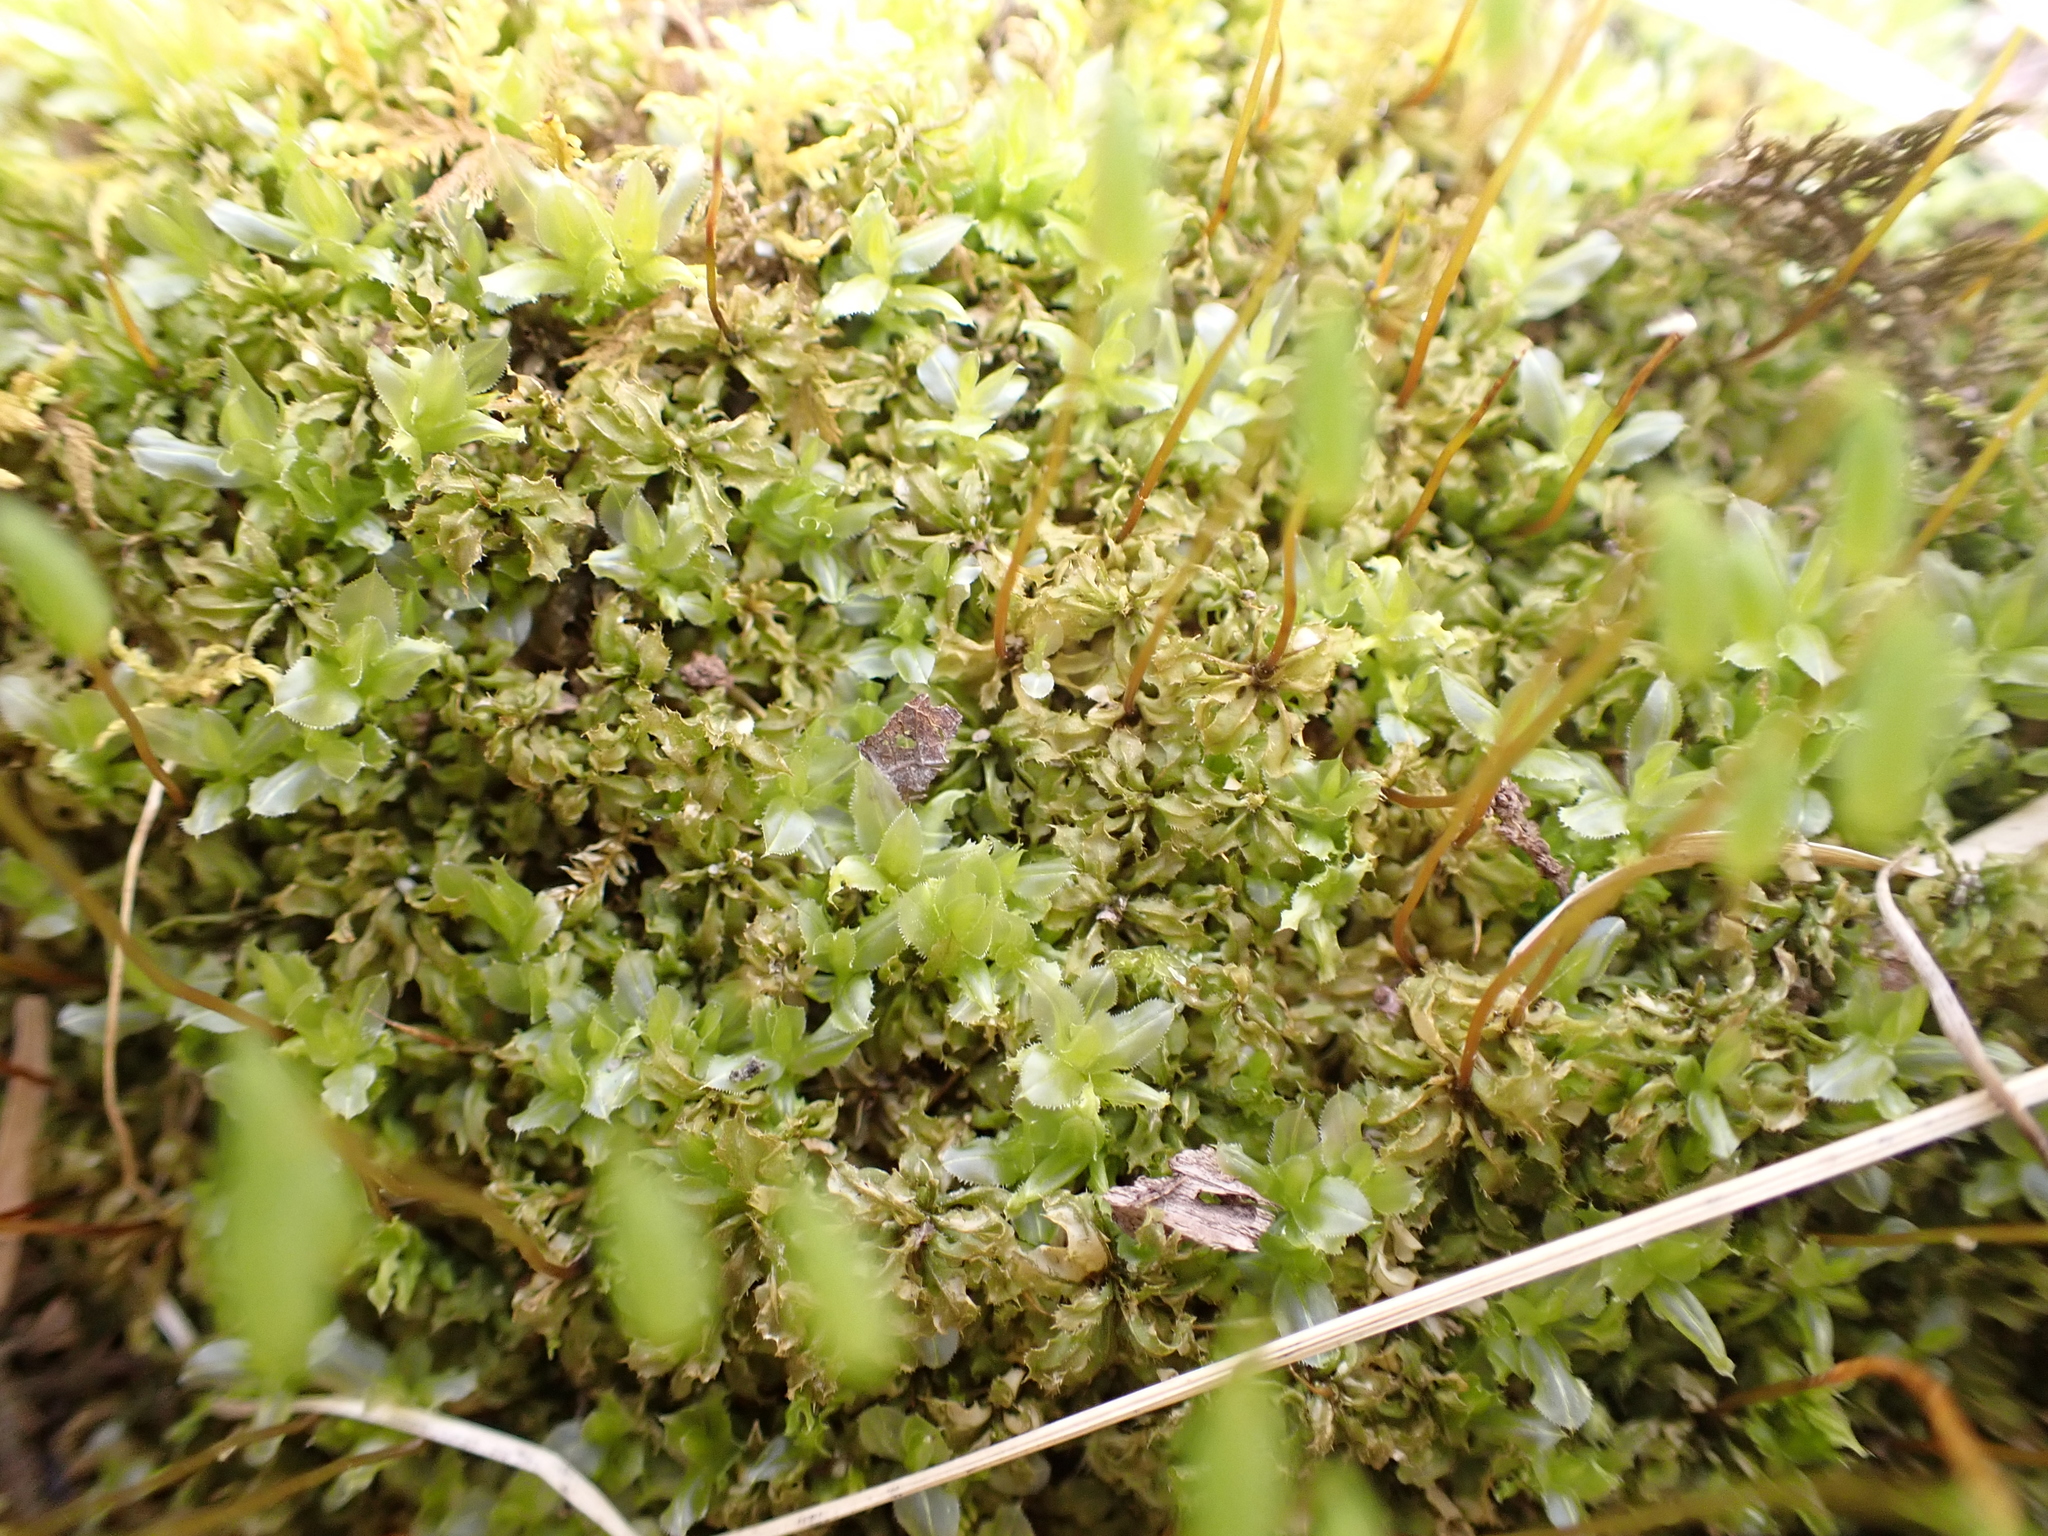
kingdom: Plantae
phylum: Bryophyta
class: Bryopsida
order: Bryales
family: Mniaceae
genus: Plagiomnium
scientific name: Plagiomnium ciliare
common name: Toothed leafy moss
